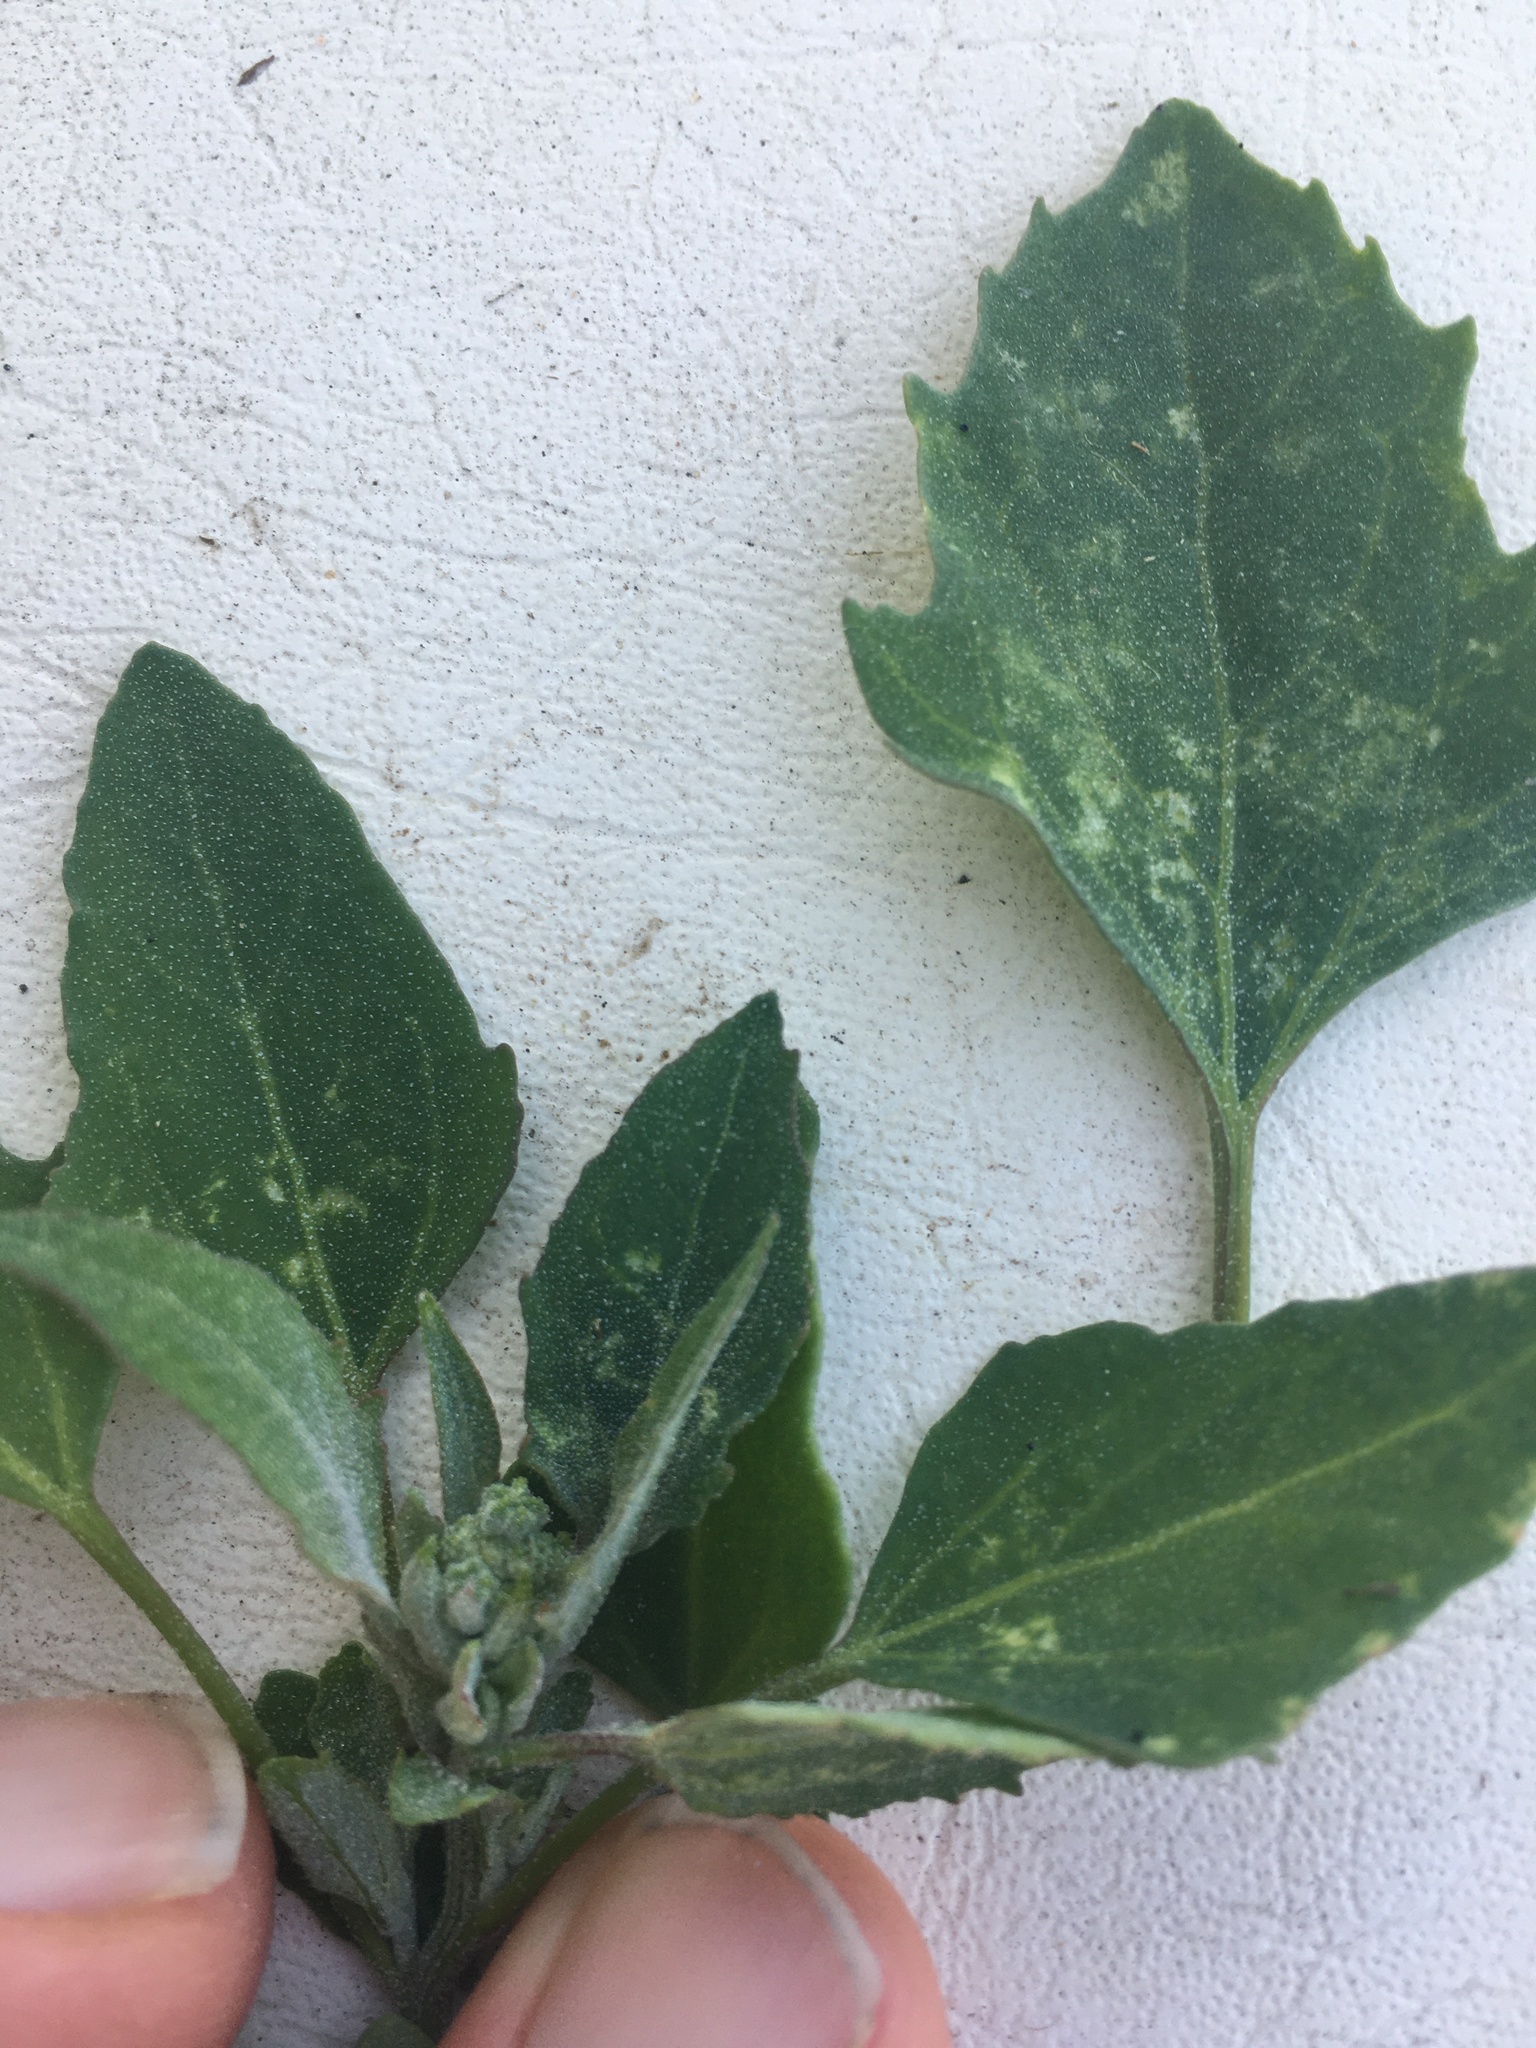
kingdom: Plantae
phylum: Tracheophyta
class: Magnoliopsida
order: Caryophyllales
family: Amaranthaceae
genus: Chenopodium
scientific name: Chenopodium album
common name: Fat-hen
